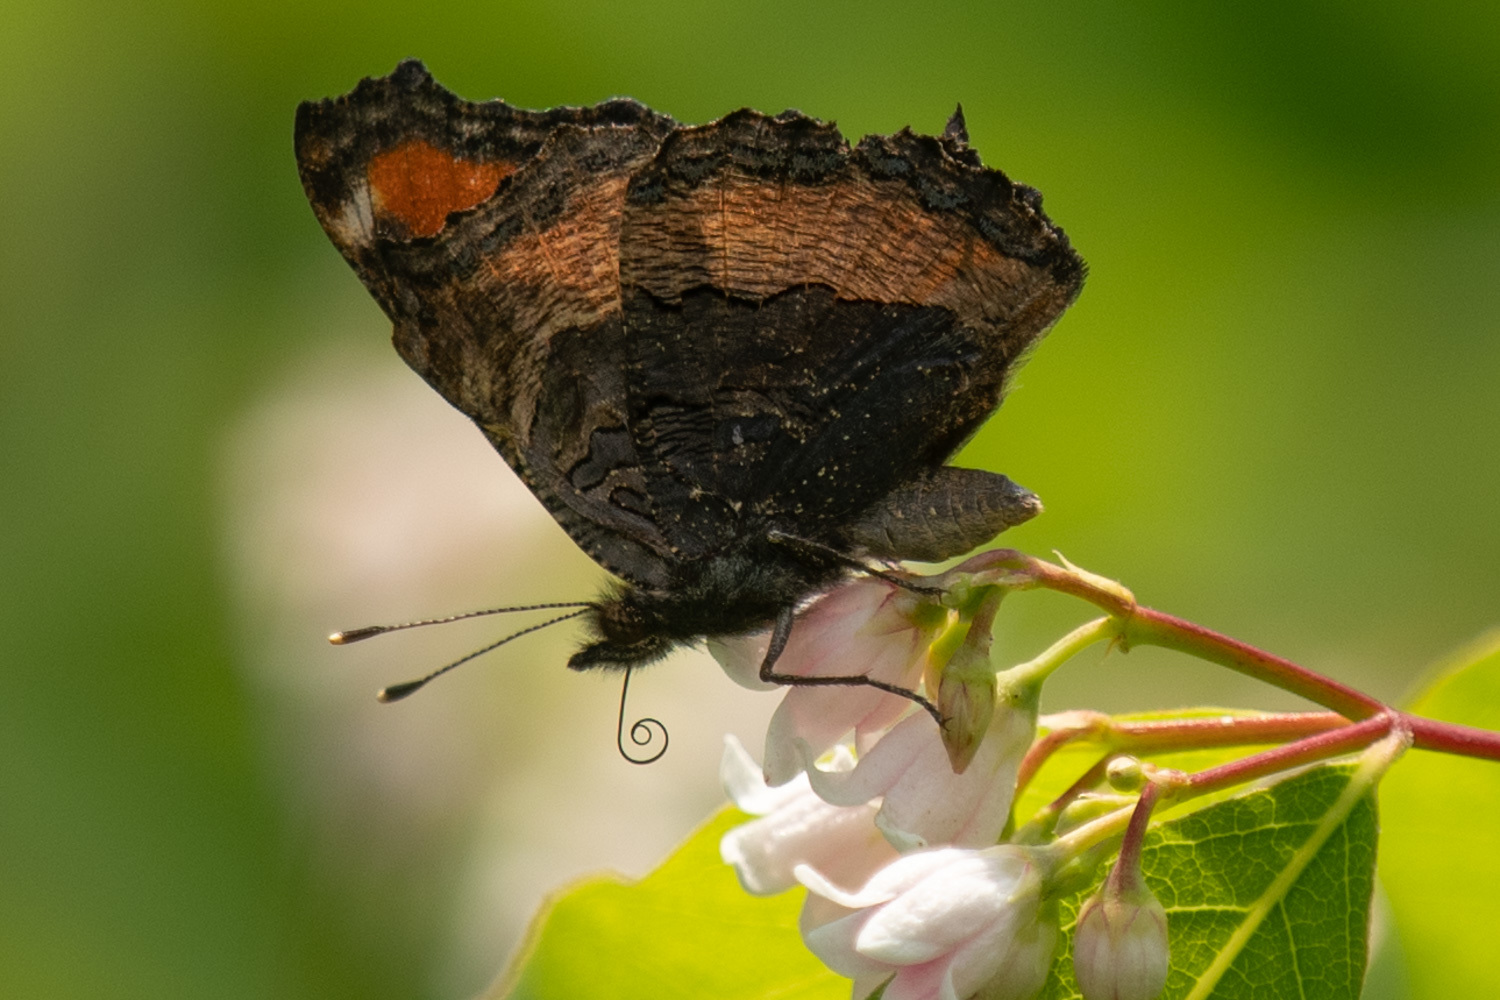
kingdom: Animalia
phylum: Arthropoda
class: Insecta
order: Lepidoptera
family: Nymphalidae
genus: Aglais
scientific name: Aglais milberti
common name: Milbert's tortoiseshell
